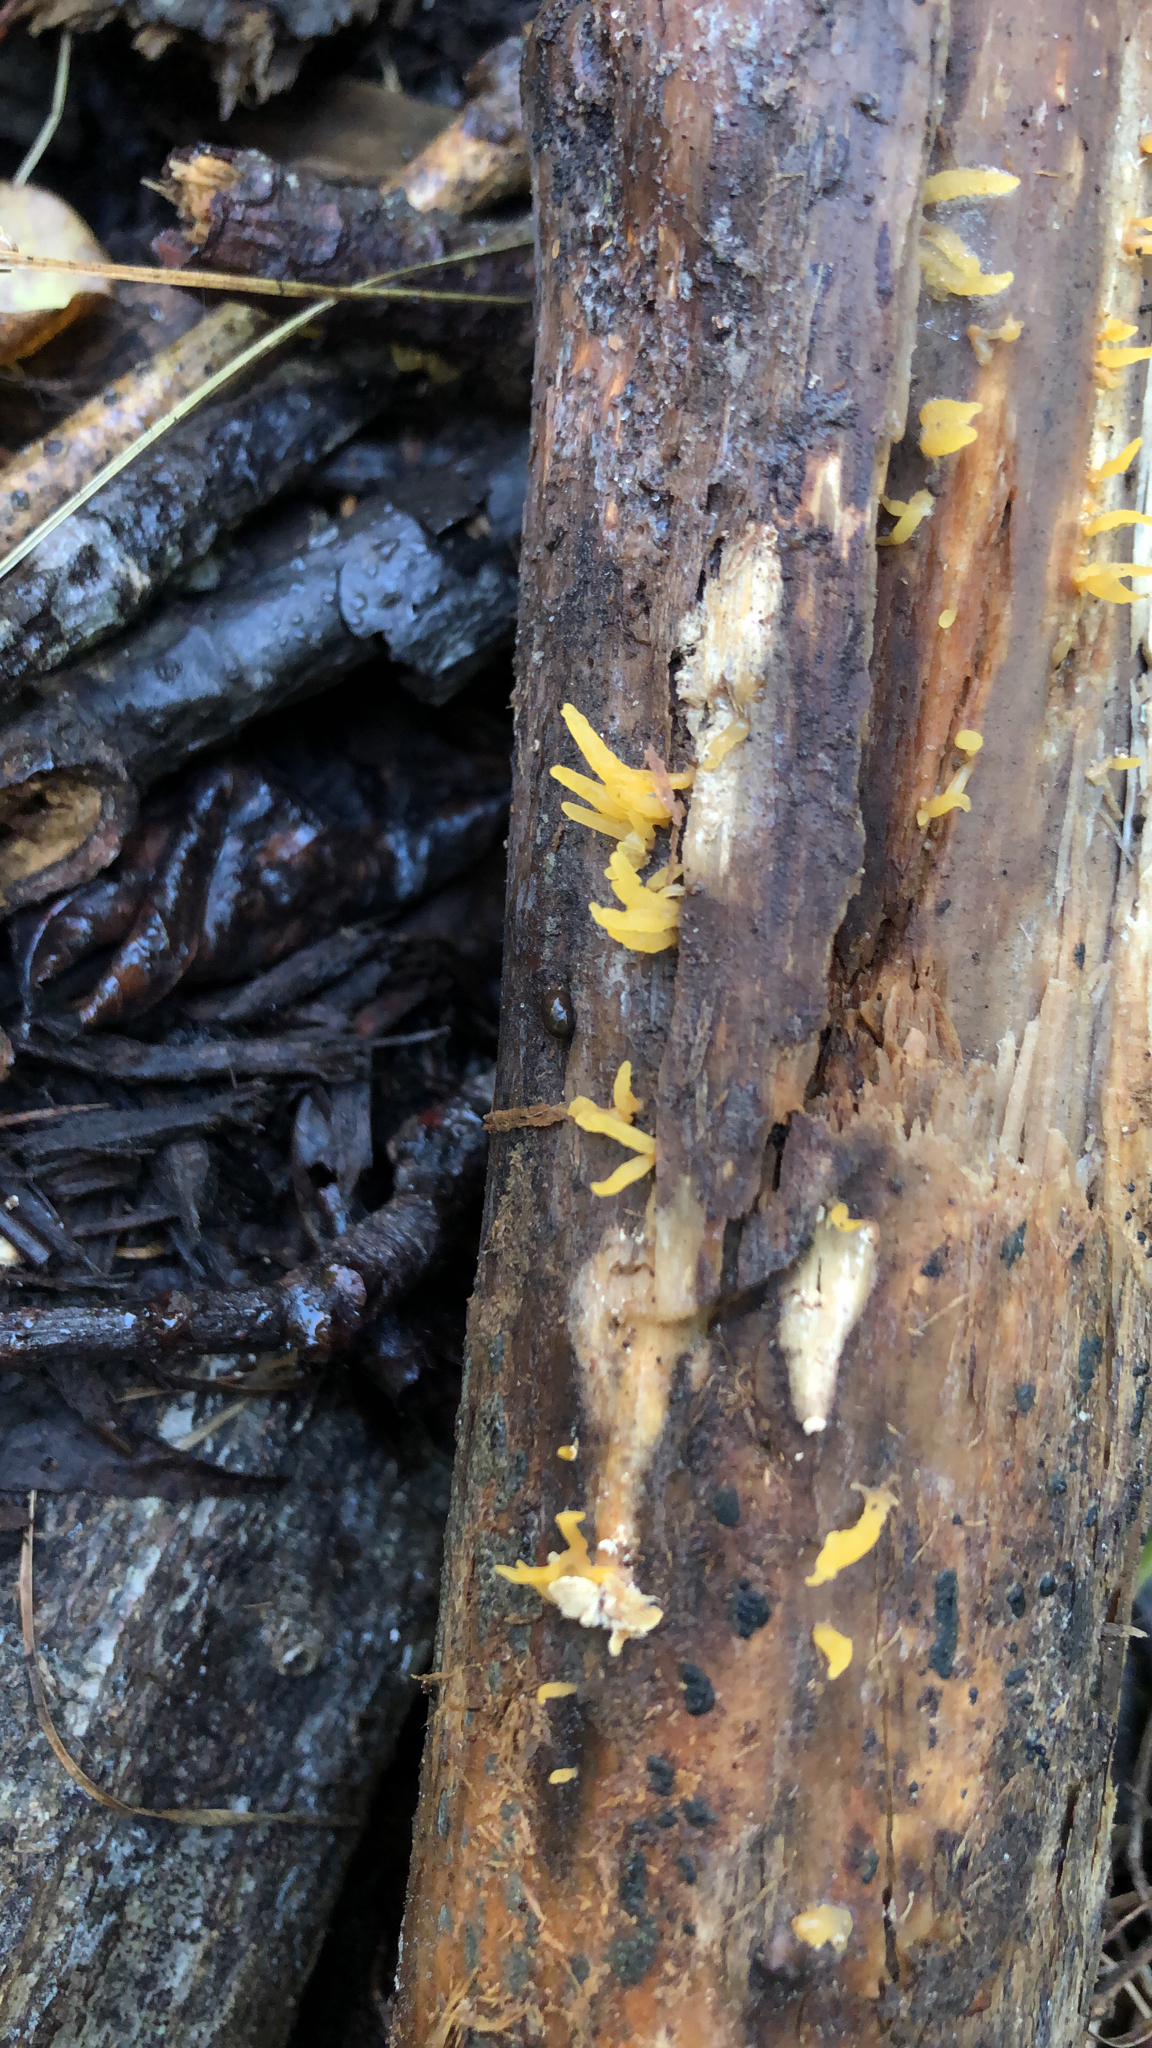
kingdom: Fungi
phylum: Basidiomycota
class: Dacrymycetes
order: Dacrymycetales
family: Dacrymycetaceae
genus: Calocera
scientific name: Calocera cornea
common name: Small stagshorn
